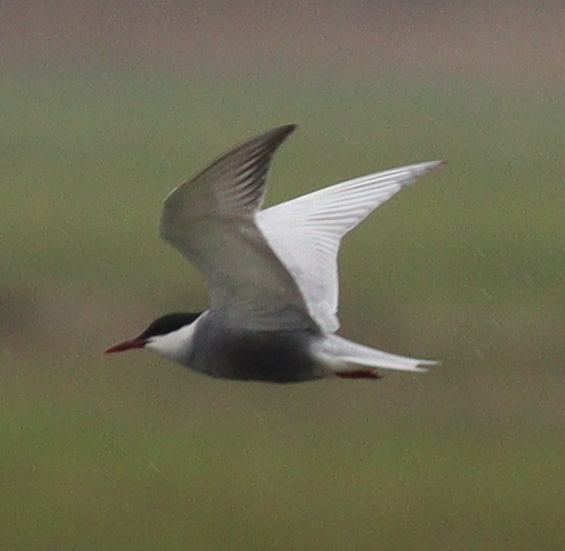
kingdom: Animalia
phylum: Chordata
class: Aves
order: Charadriiformes
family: Laridae
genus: Chlidonias
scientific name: Chlidonias hybrida
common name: Whiskered tern
